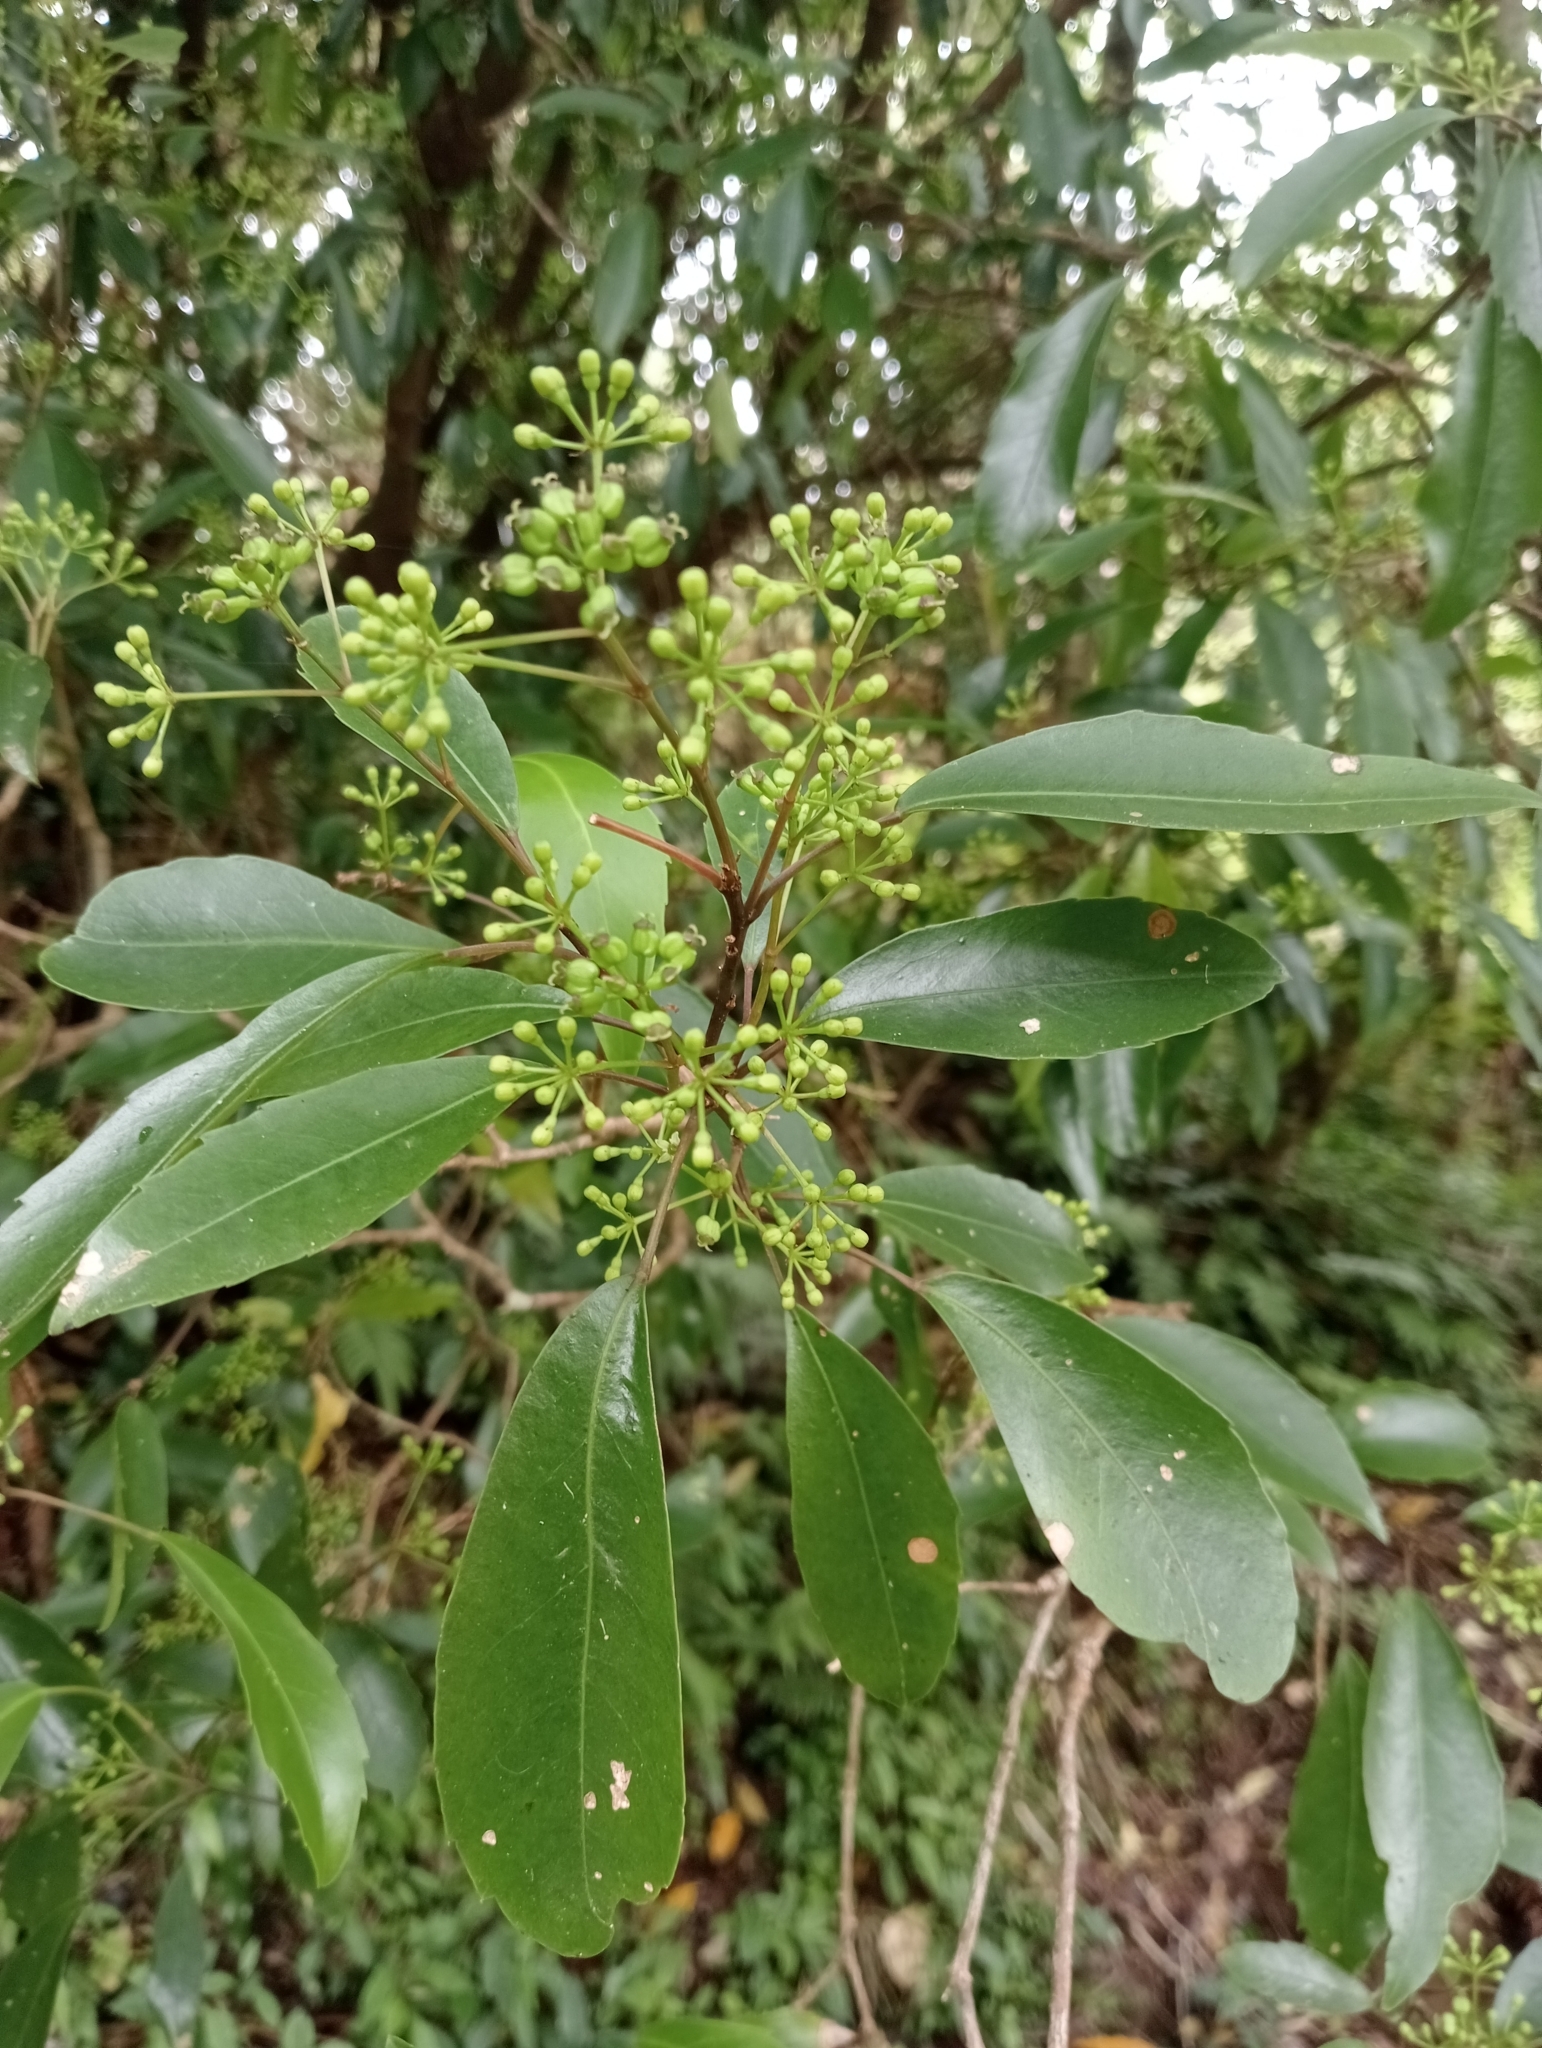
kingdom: Plantae
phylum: Tracheophyta
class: Magnoliopsida
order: Apiales
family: Araliaceae
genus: Raukaua
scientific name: Raukaua simplex
